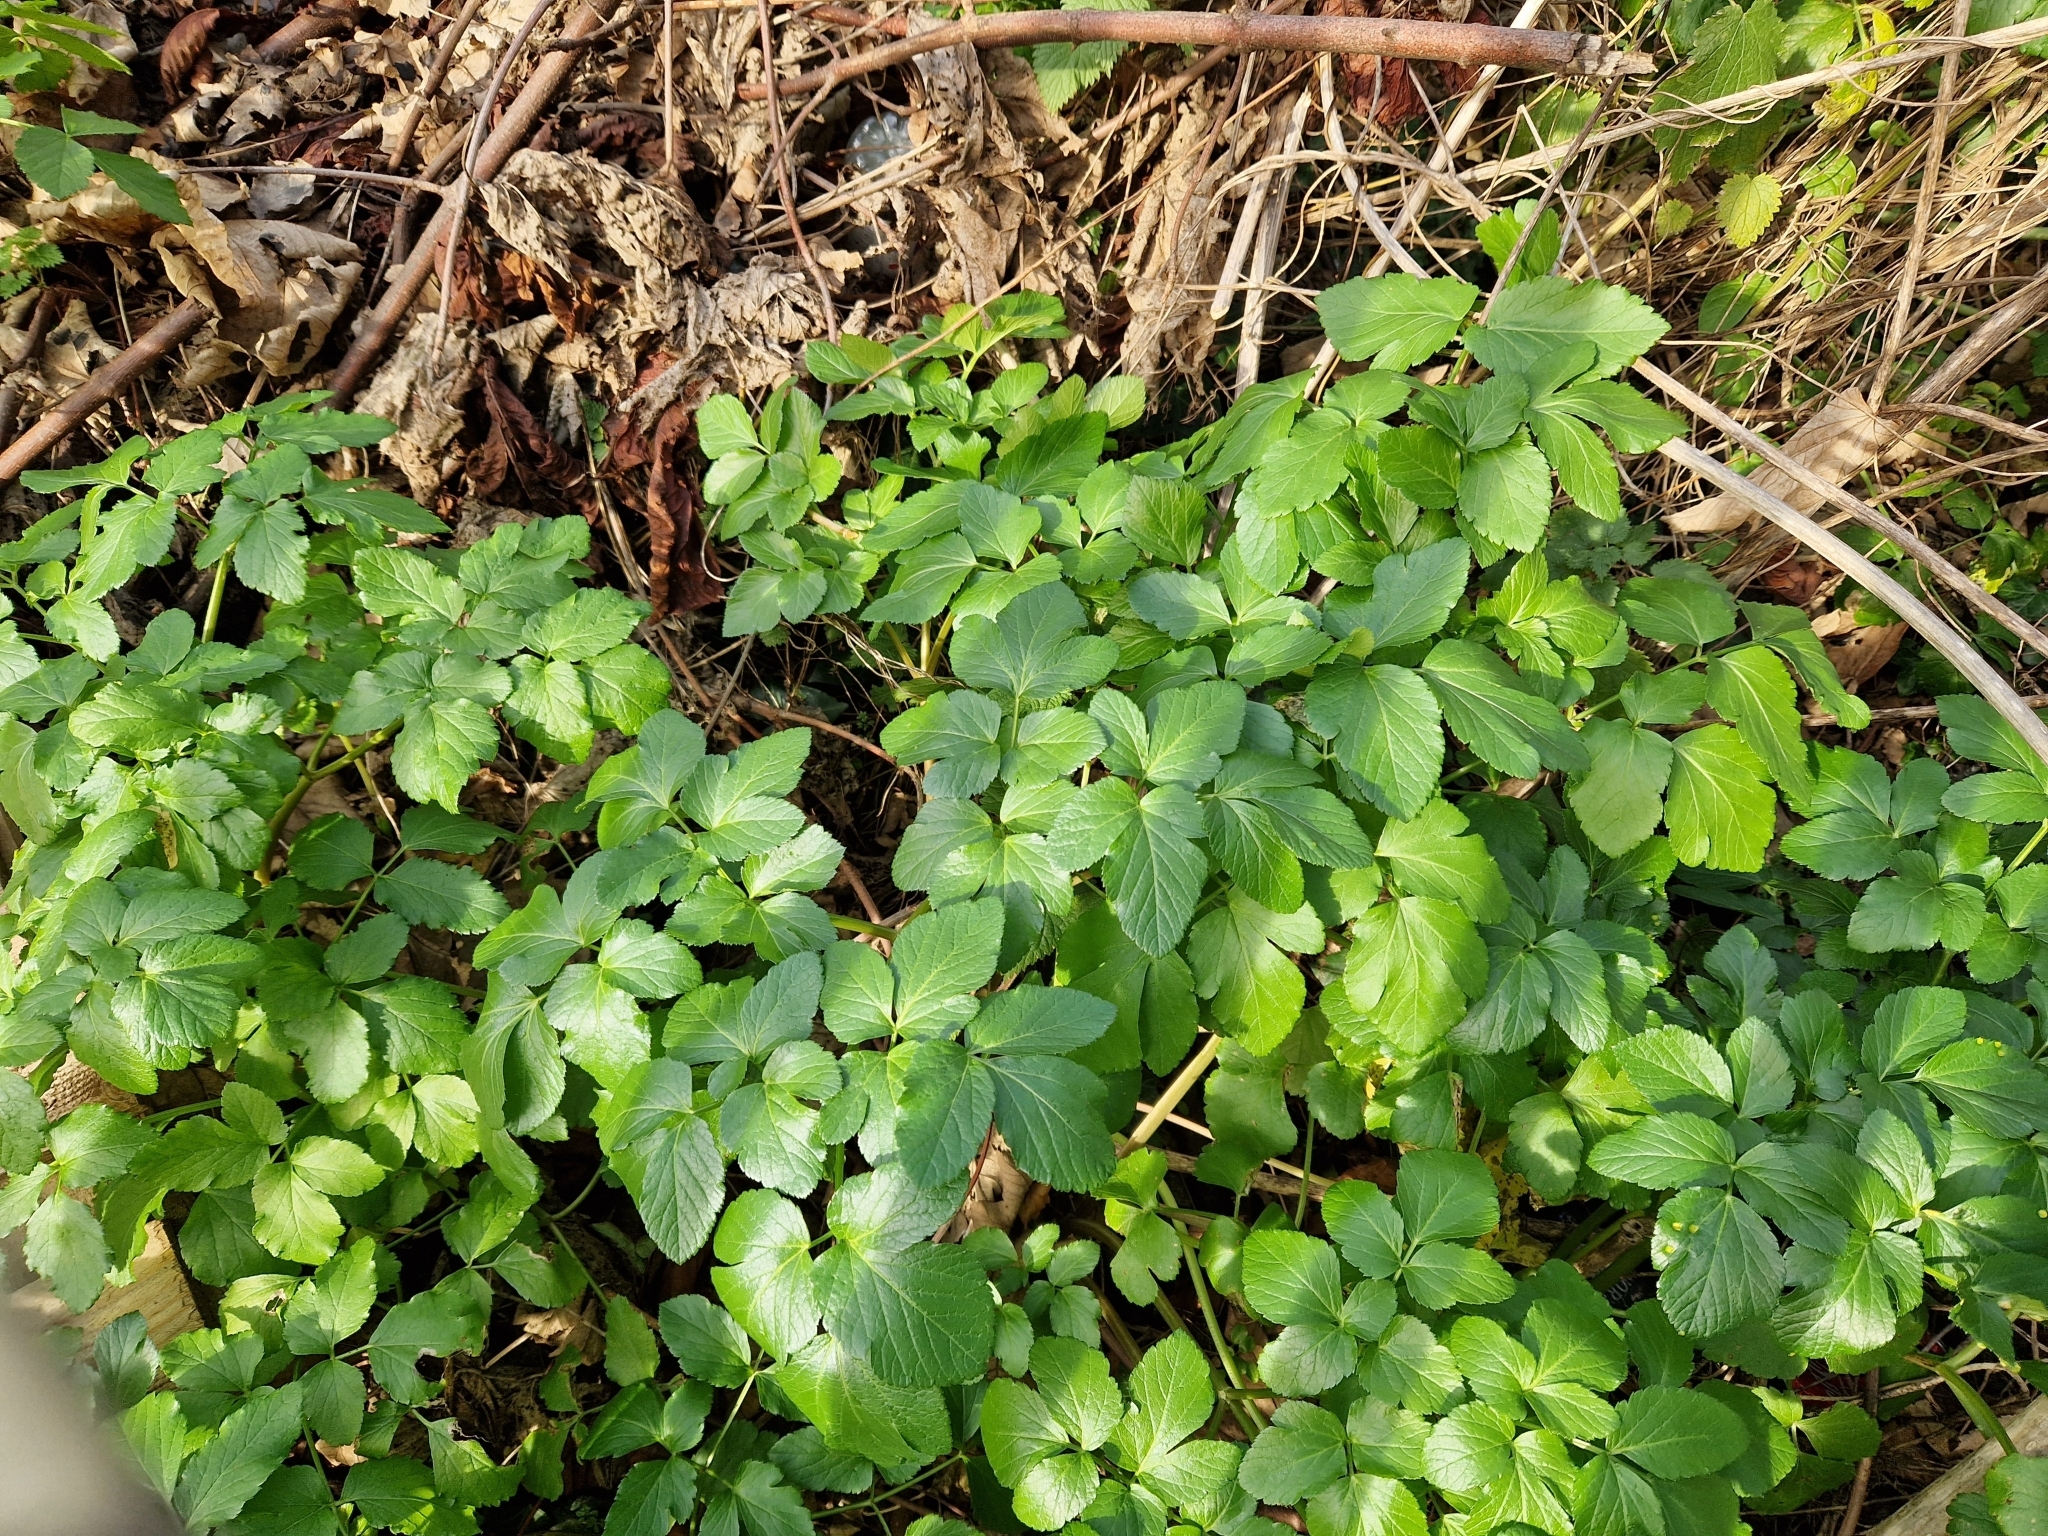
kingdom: Plantae
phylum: Tracheophyta
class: Magnoliopsida
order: Apiales
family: Apiaceae
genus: Smyrnium
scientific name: Smyrnium olusatrum
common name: Alexanders
